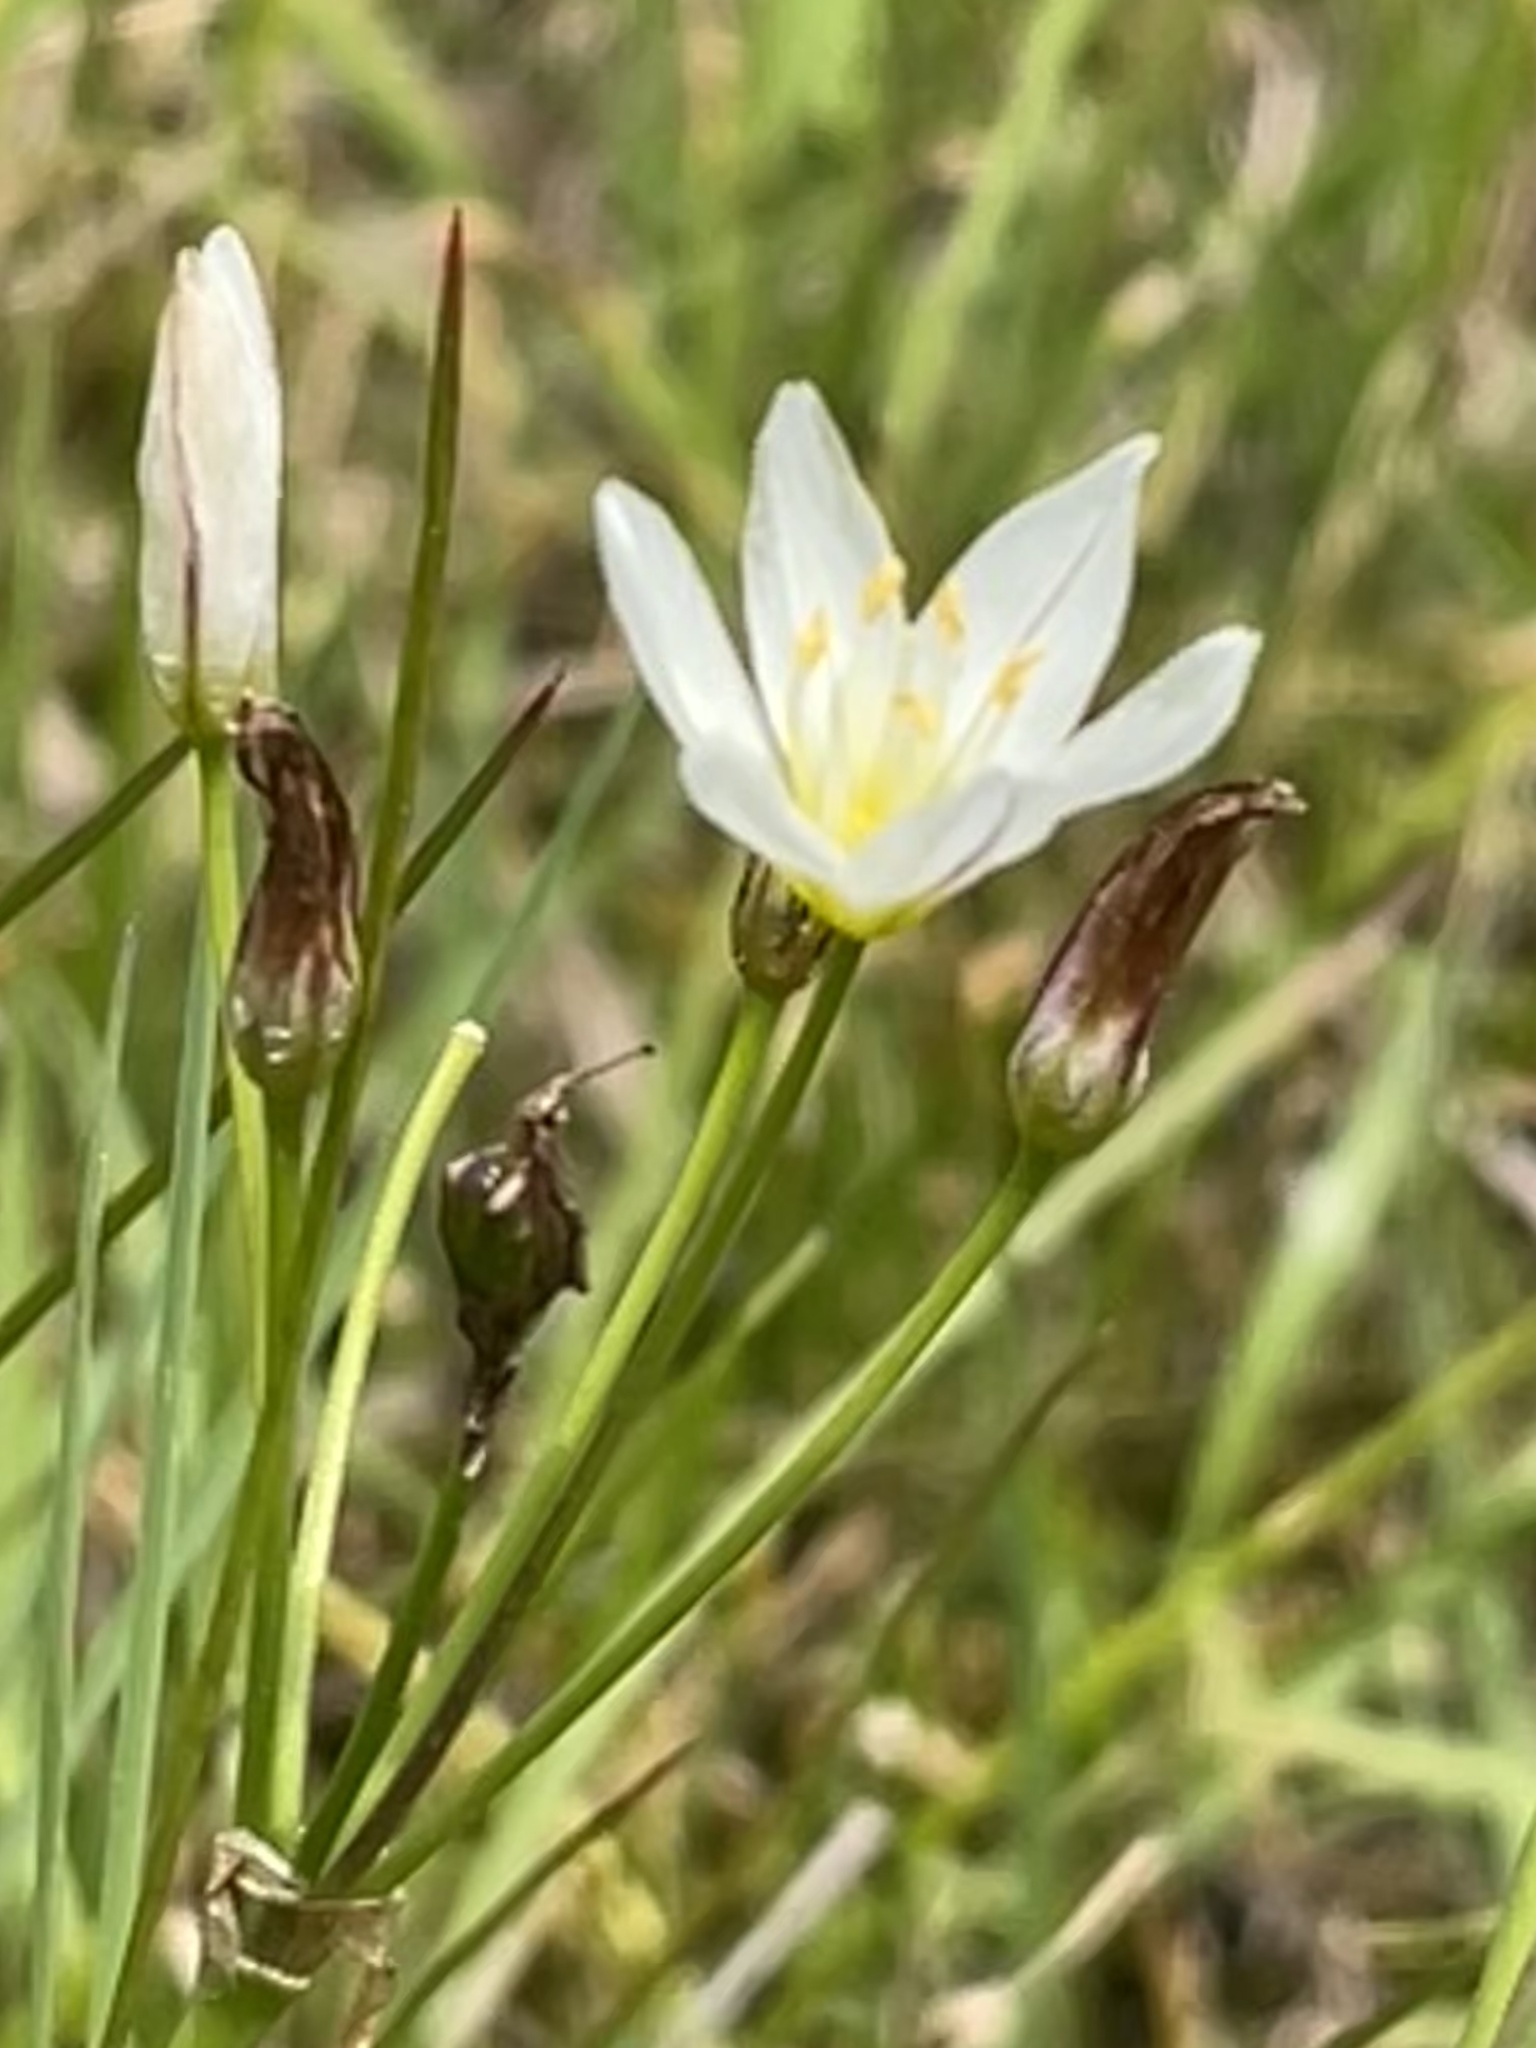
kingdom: Plantae
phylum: Tracheophyta
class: Liliopsida
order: Asparagales
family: Amaryllidaceae
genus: Nothoscordum
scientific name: Nothoscordum bivalve
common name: Crow-poison
